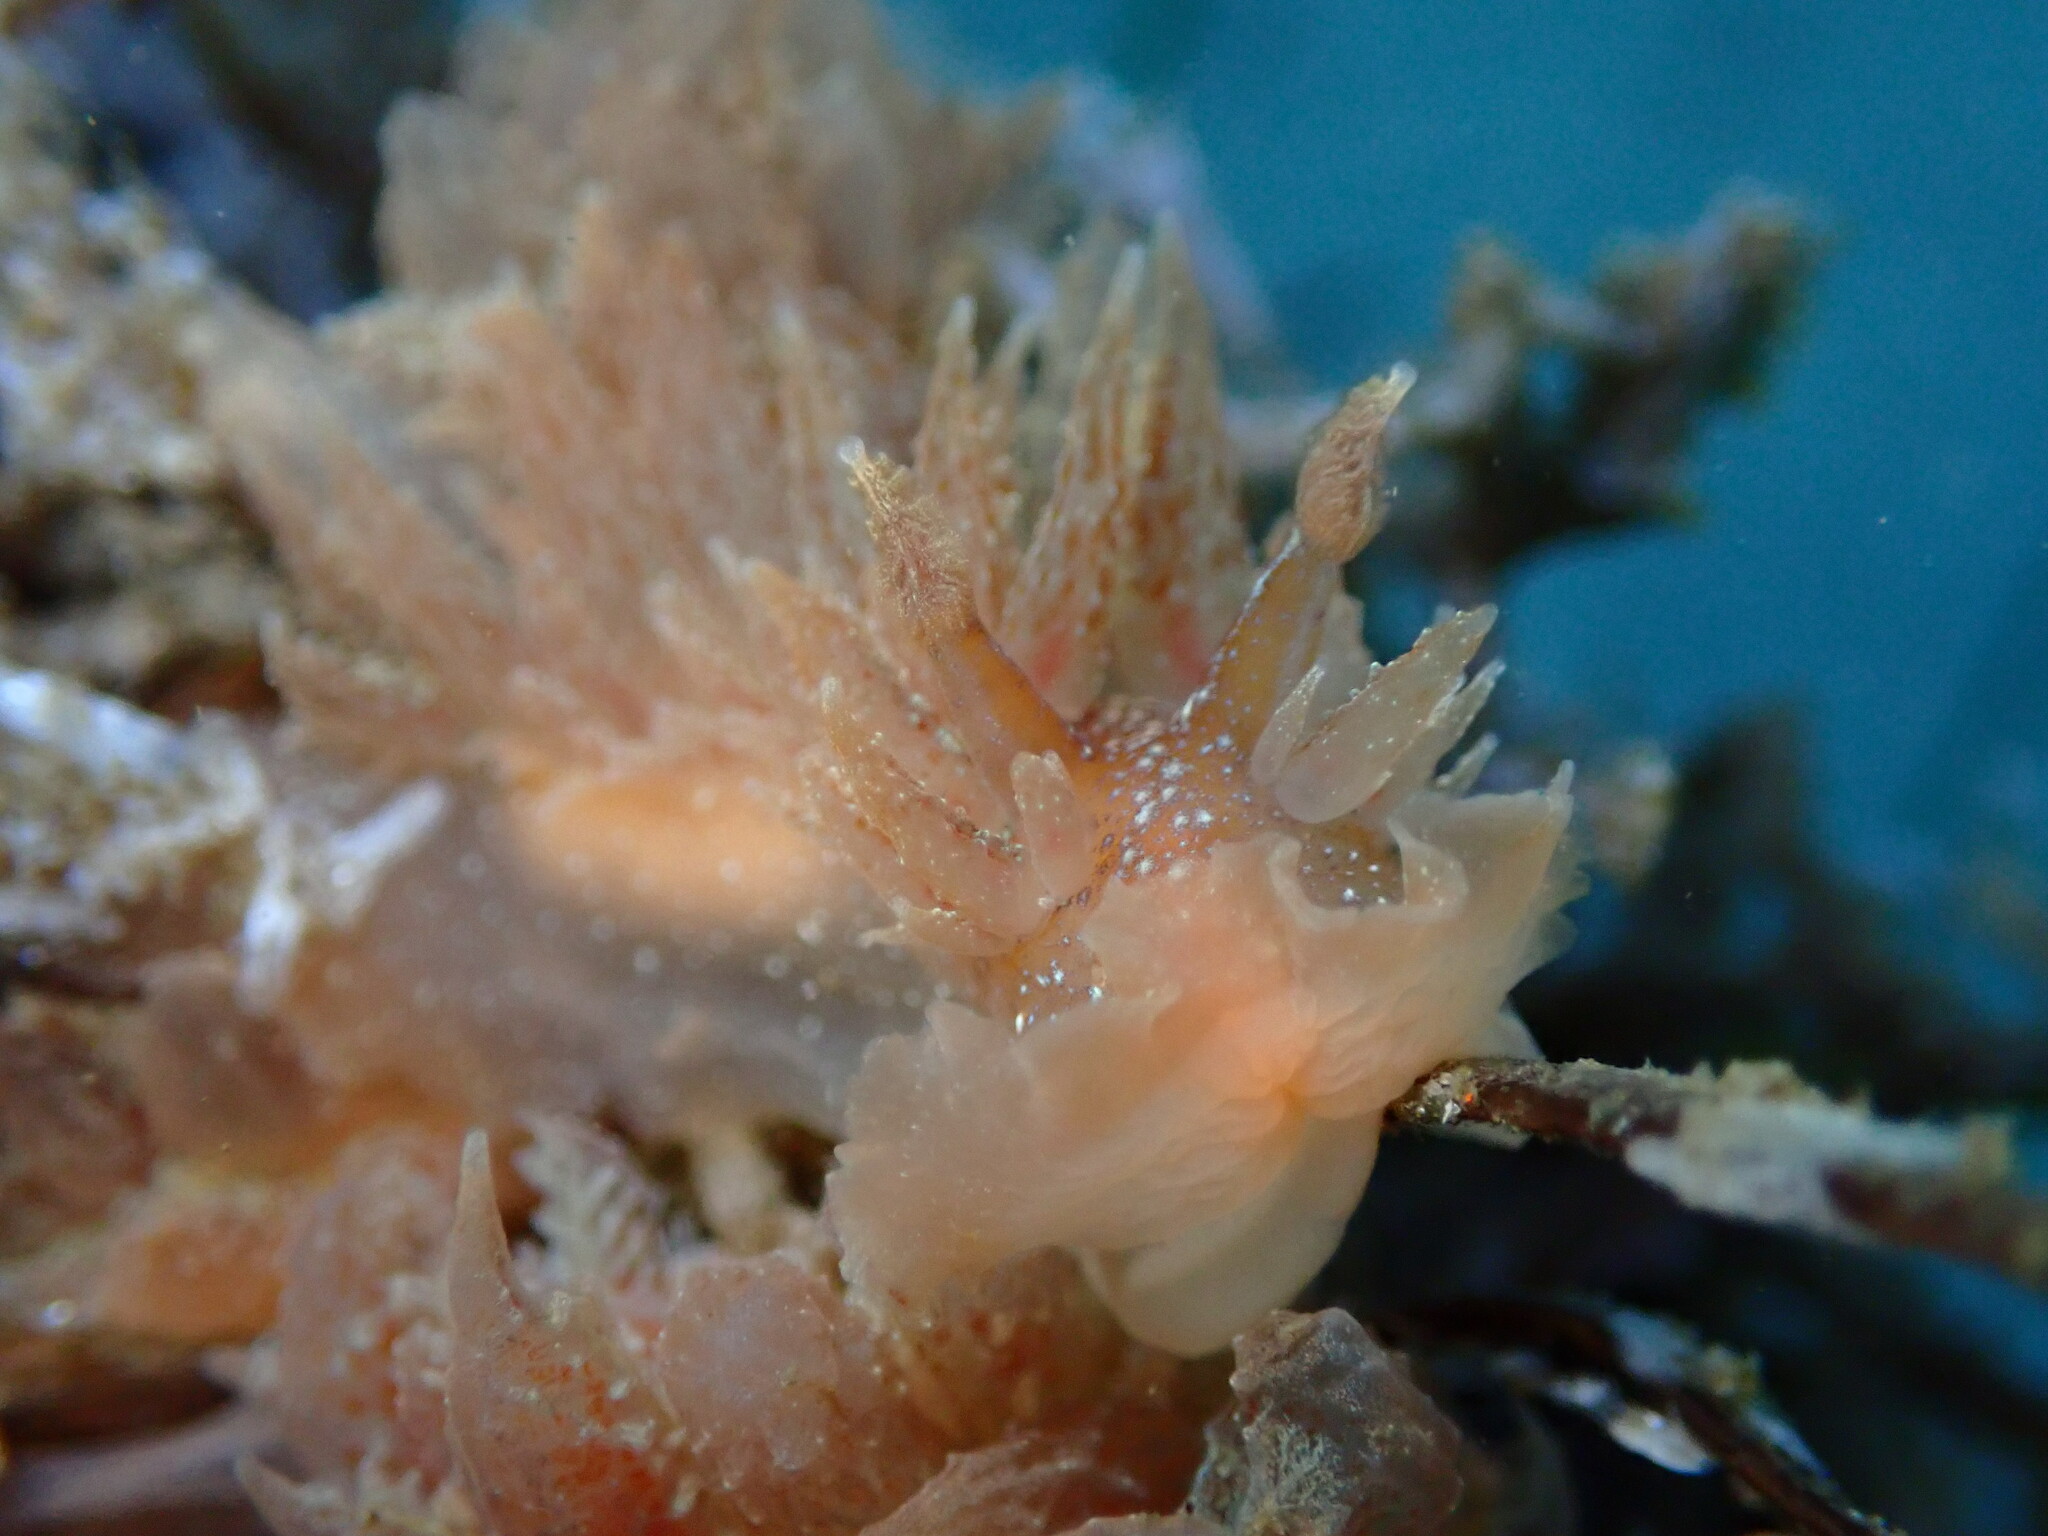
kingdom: Animalia
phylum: Mollusca
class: Gastropoda
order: Nudibranchia
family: Dironidae
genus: Dirona
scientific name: Dirona picta
